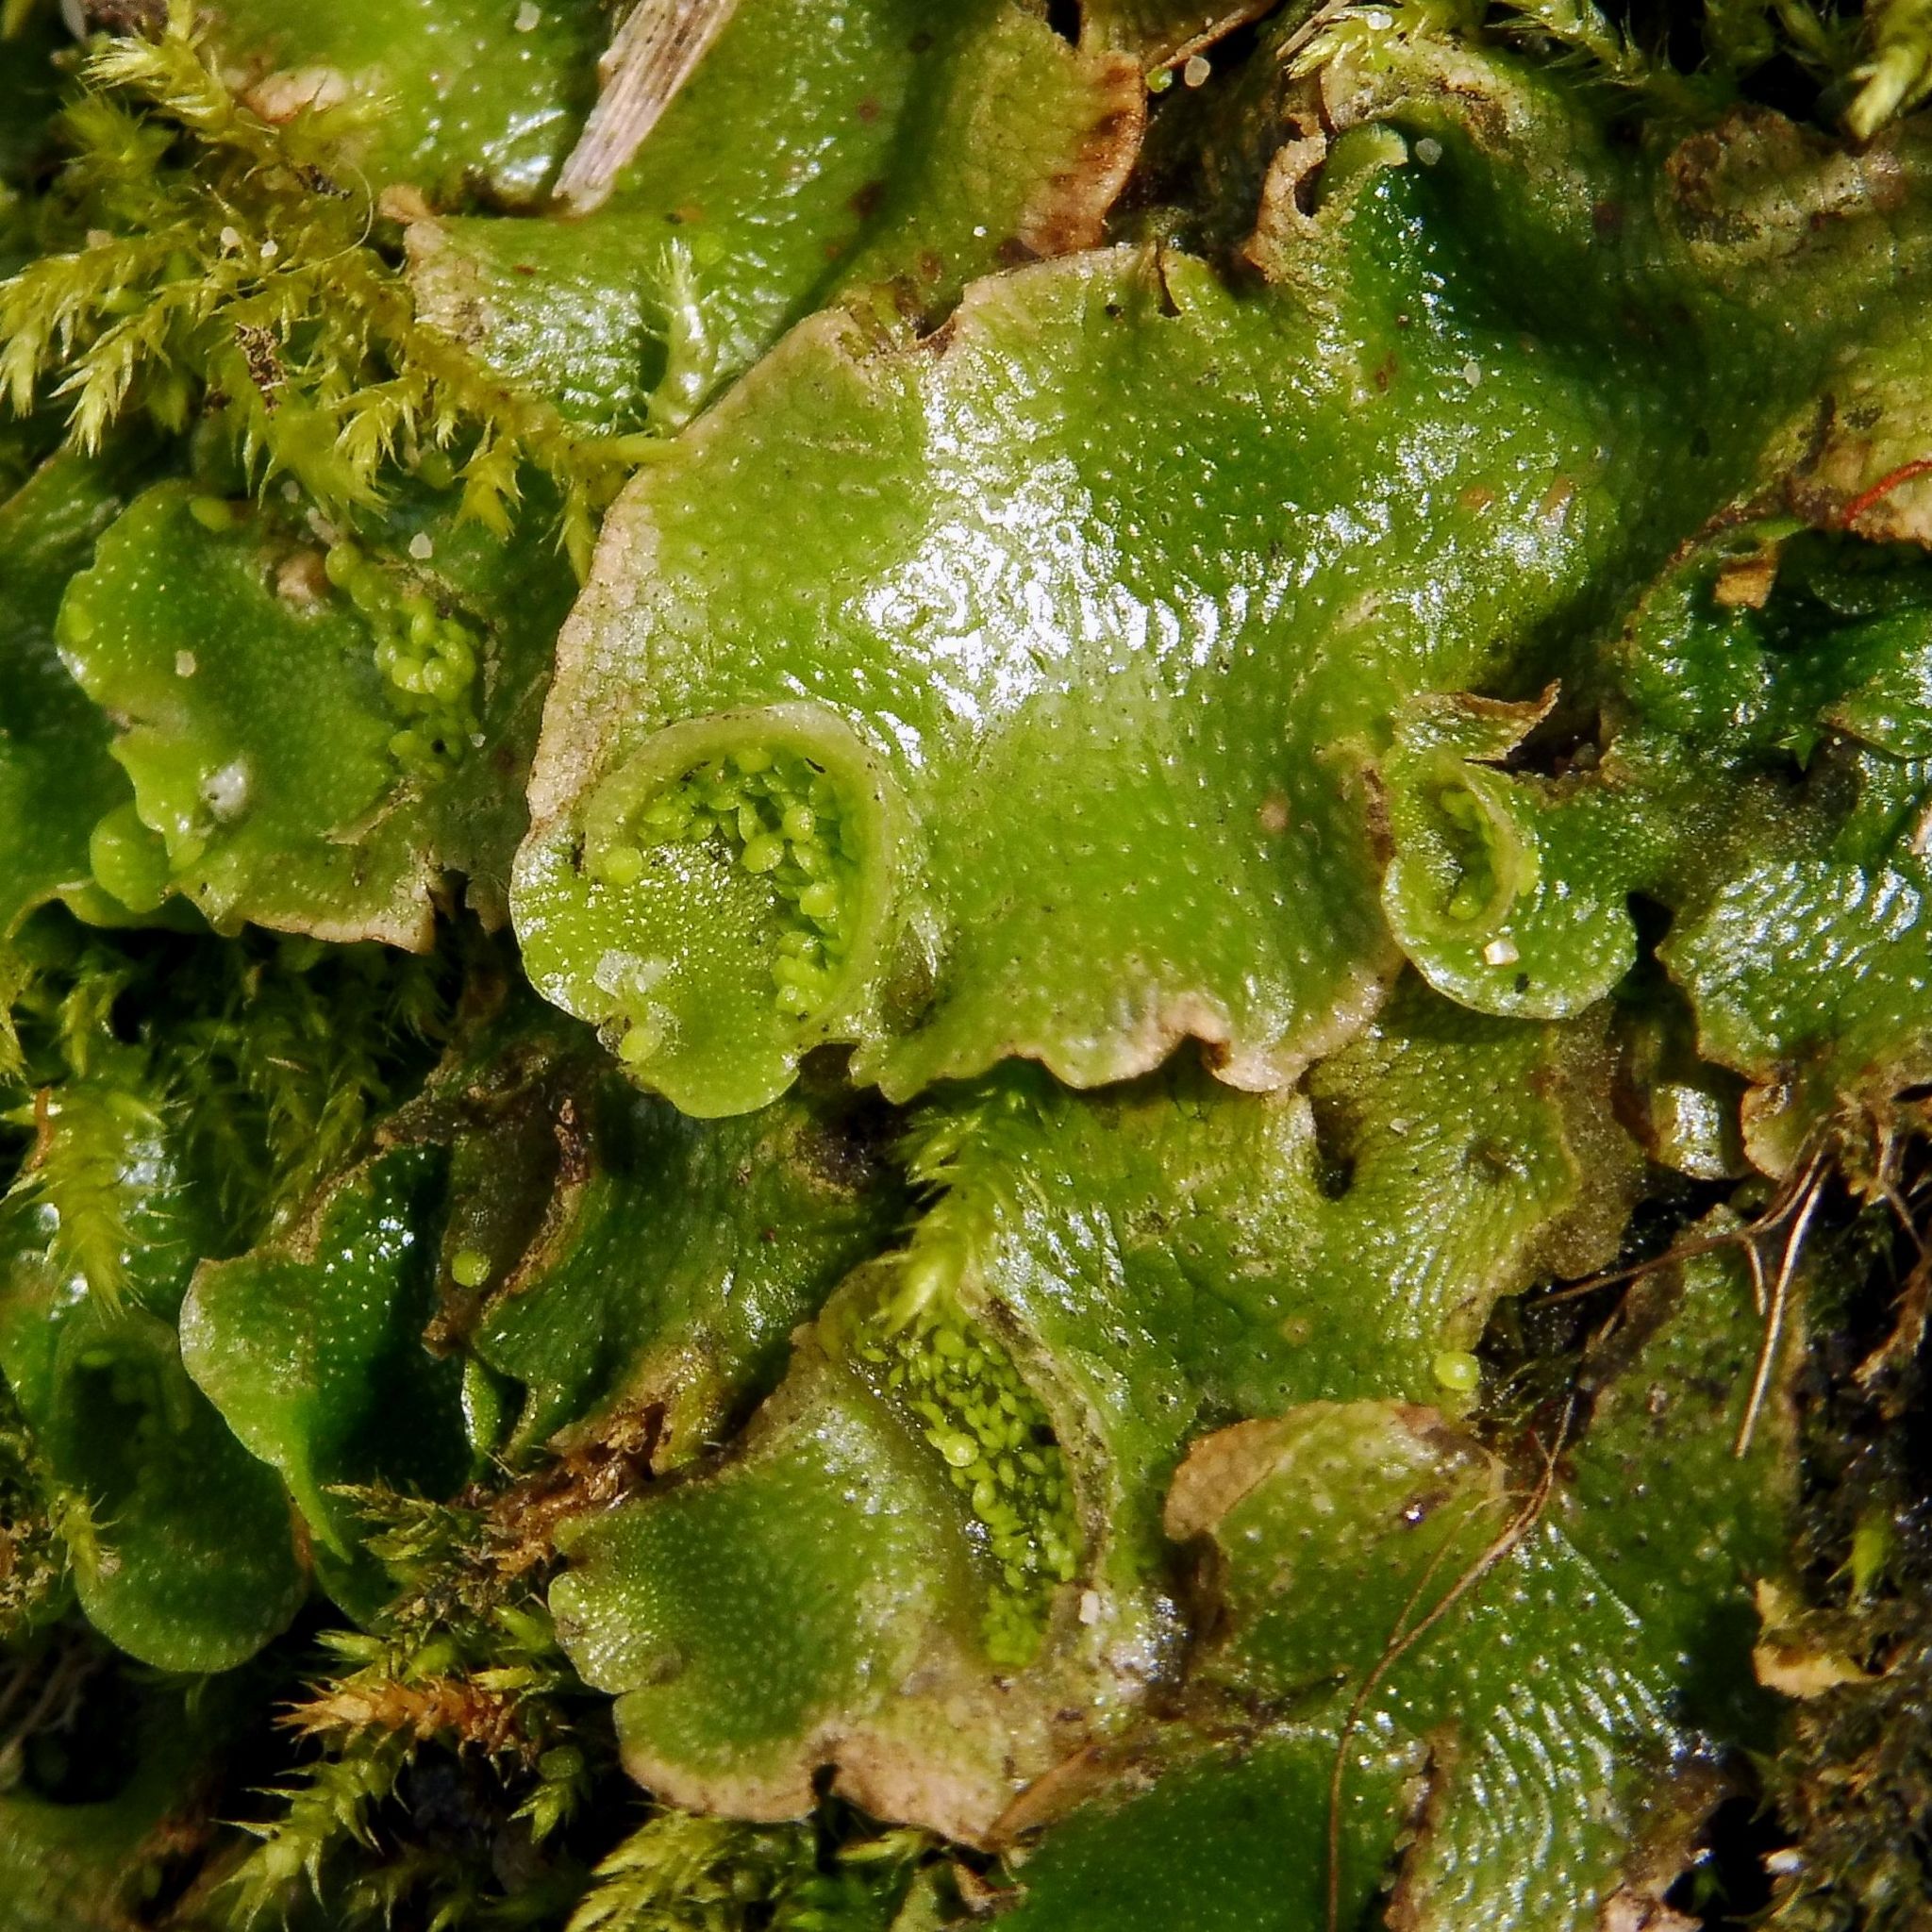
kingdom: Plantae
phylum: Marchantiophyta
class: Marchantiopsida
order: Lunulariales
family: Lunulariaceae
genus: Lunularia
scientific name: Lunularia cruciata
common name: Crescent-cup liverwort
